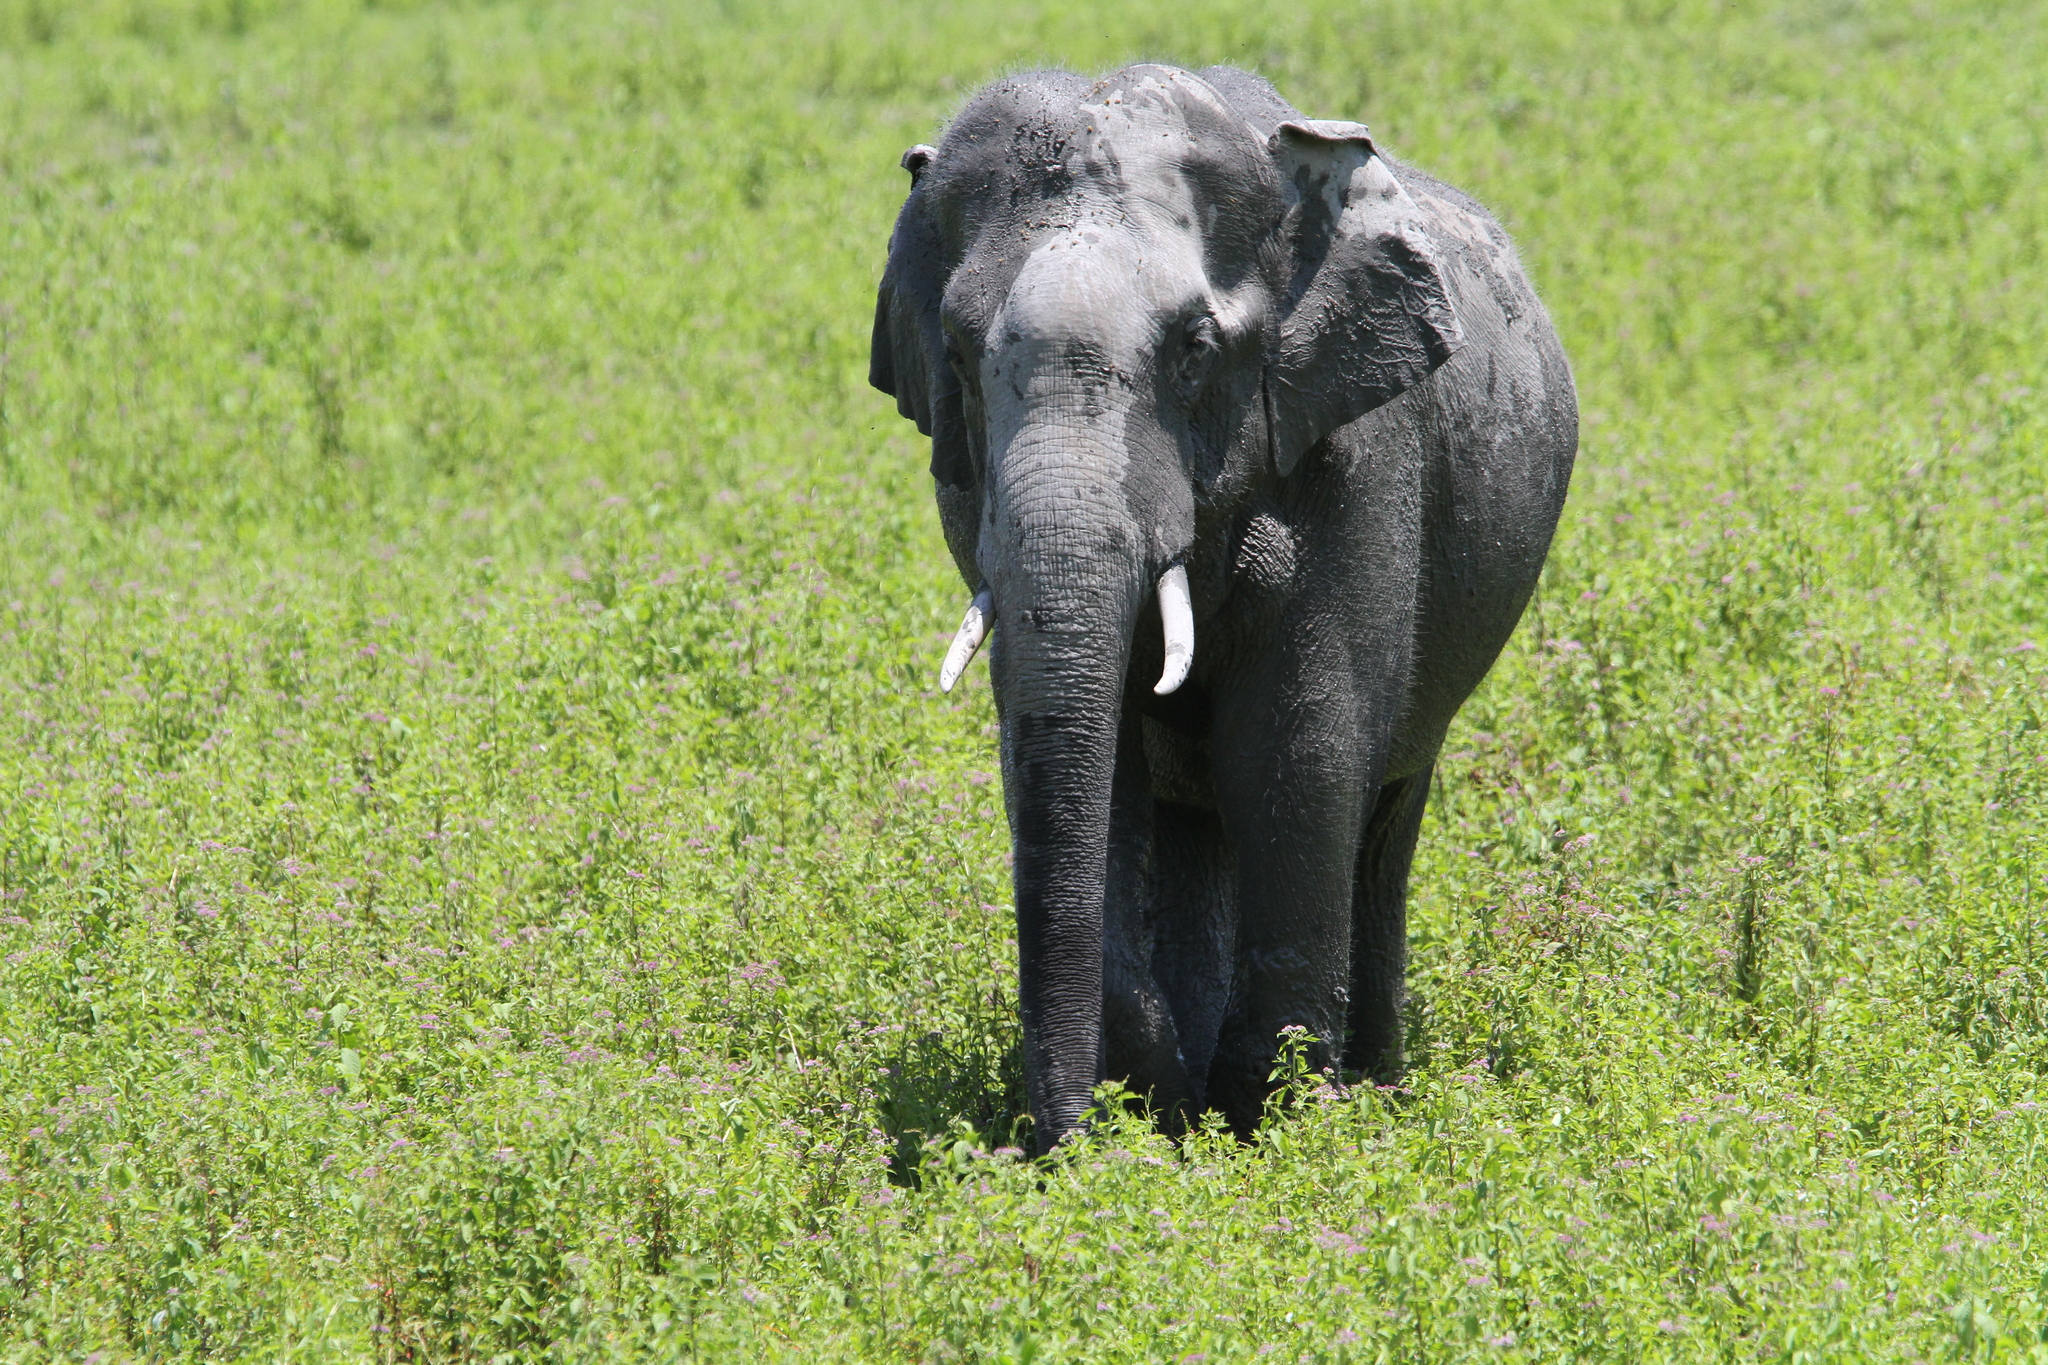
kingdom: Animalia
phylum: Chordata
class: Mammalia
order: Proboscidea
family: Elephantidae
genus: Elephas
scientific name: Elephas maximus
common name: Asian elephant
